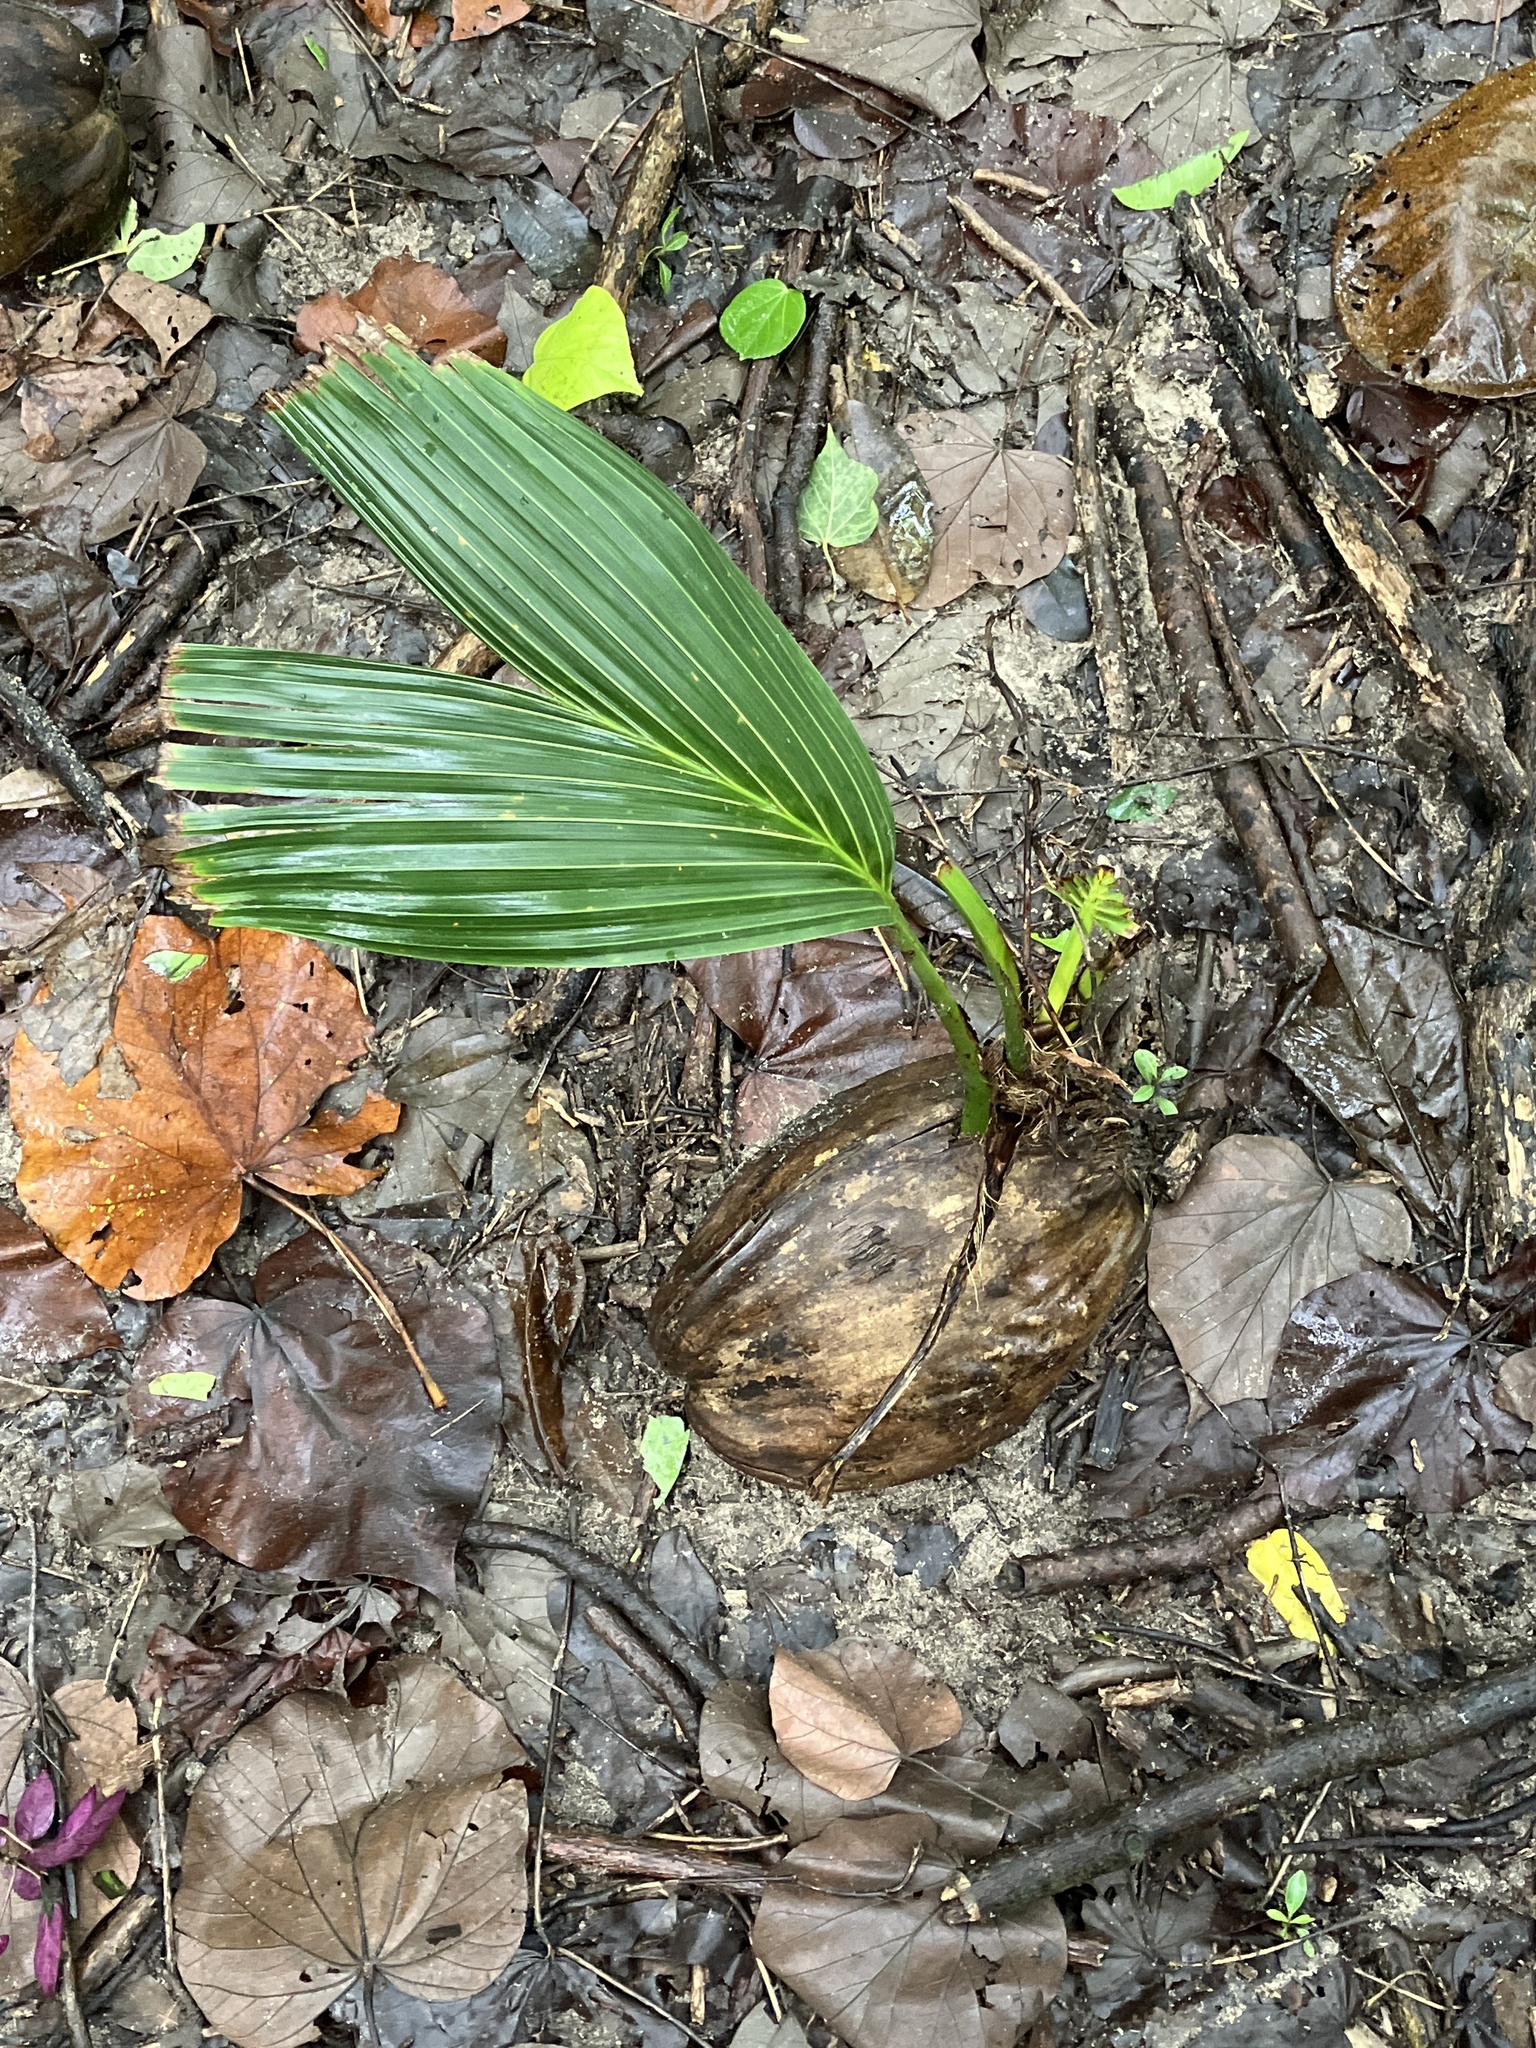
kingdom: Plantae
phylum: Tracheophyta
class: Liliopsida
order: Arecales
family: Arecaceae
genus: Cocos
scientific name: Cocos nucifera
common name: Coconut palm
